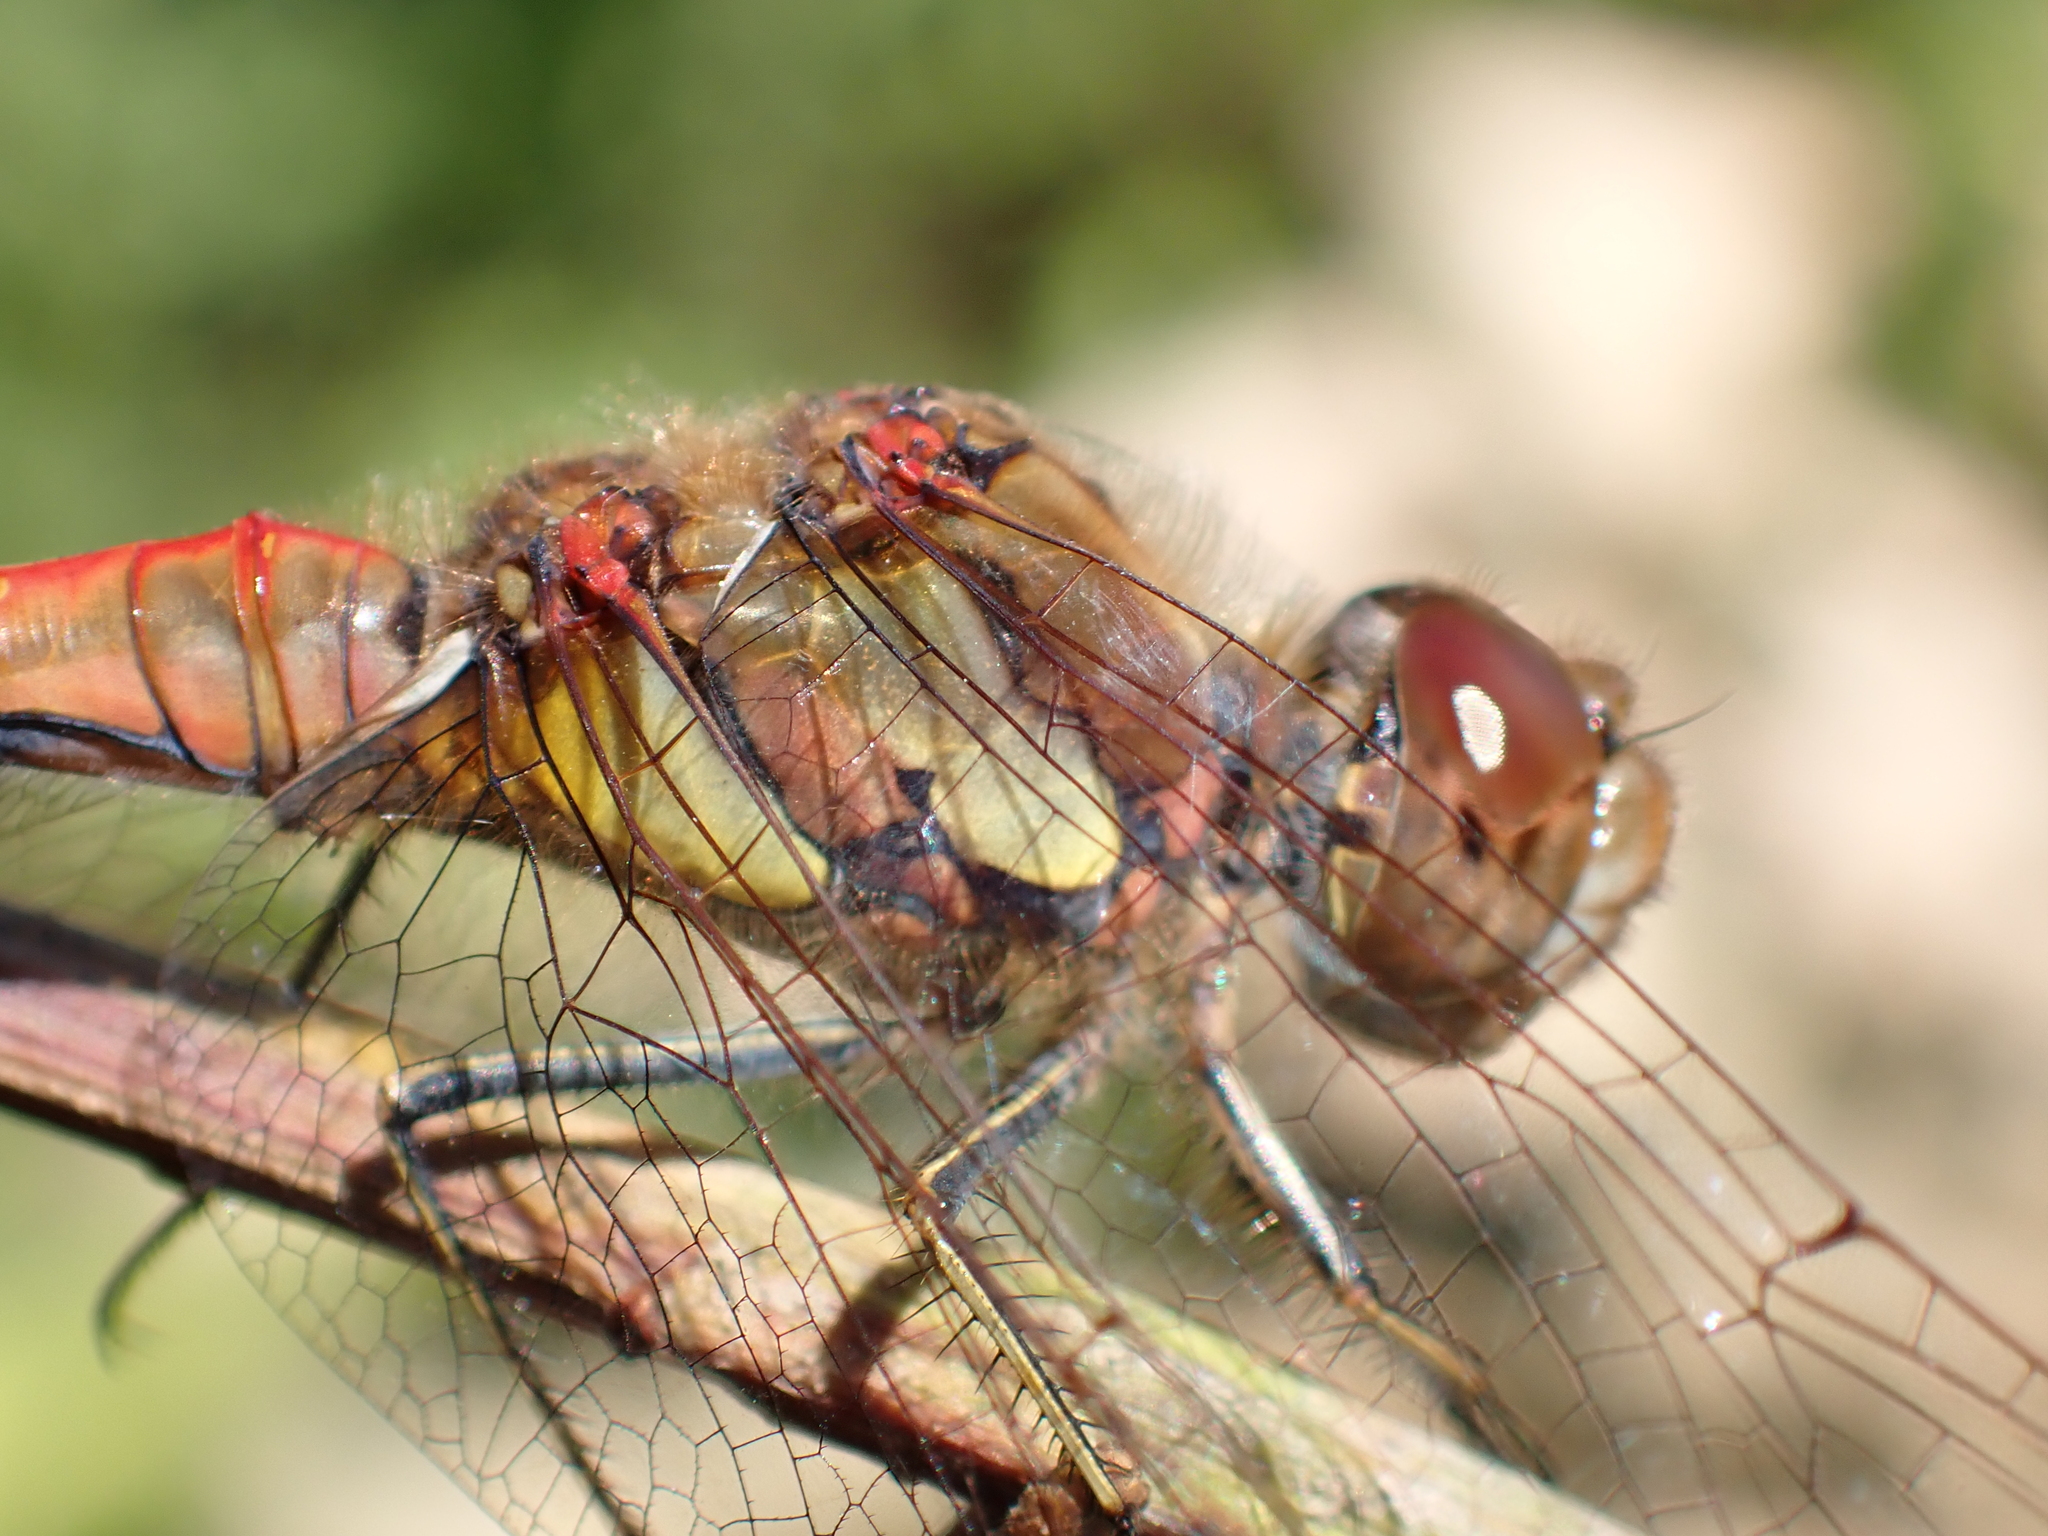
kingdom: Animalia
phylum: Arthropoda
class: Insecta
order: Odonata
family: Libellulidae
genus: Sympetrum
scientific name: Sympetrum striolatum
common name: Common darter
